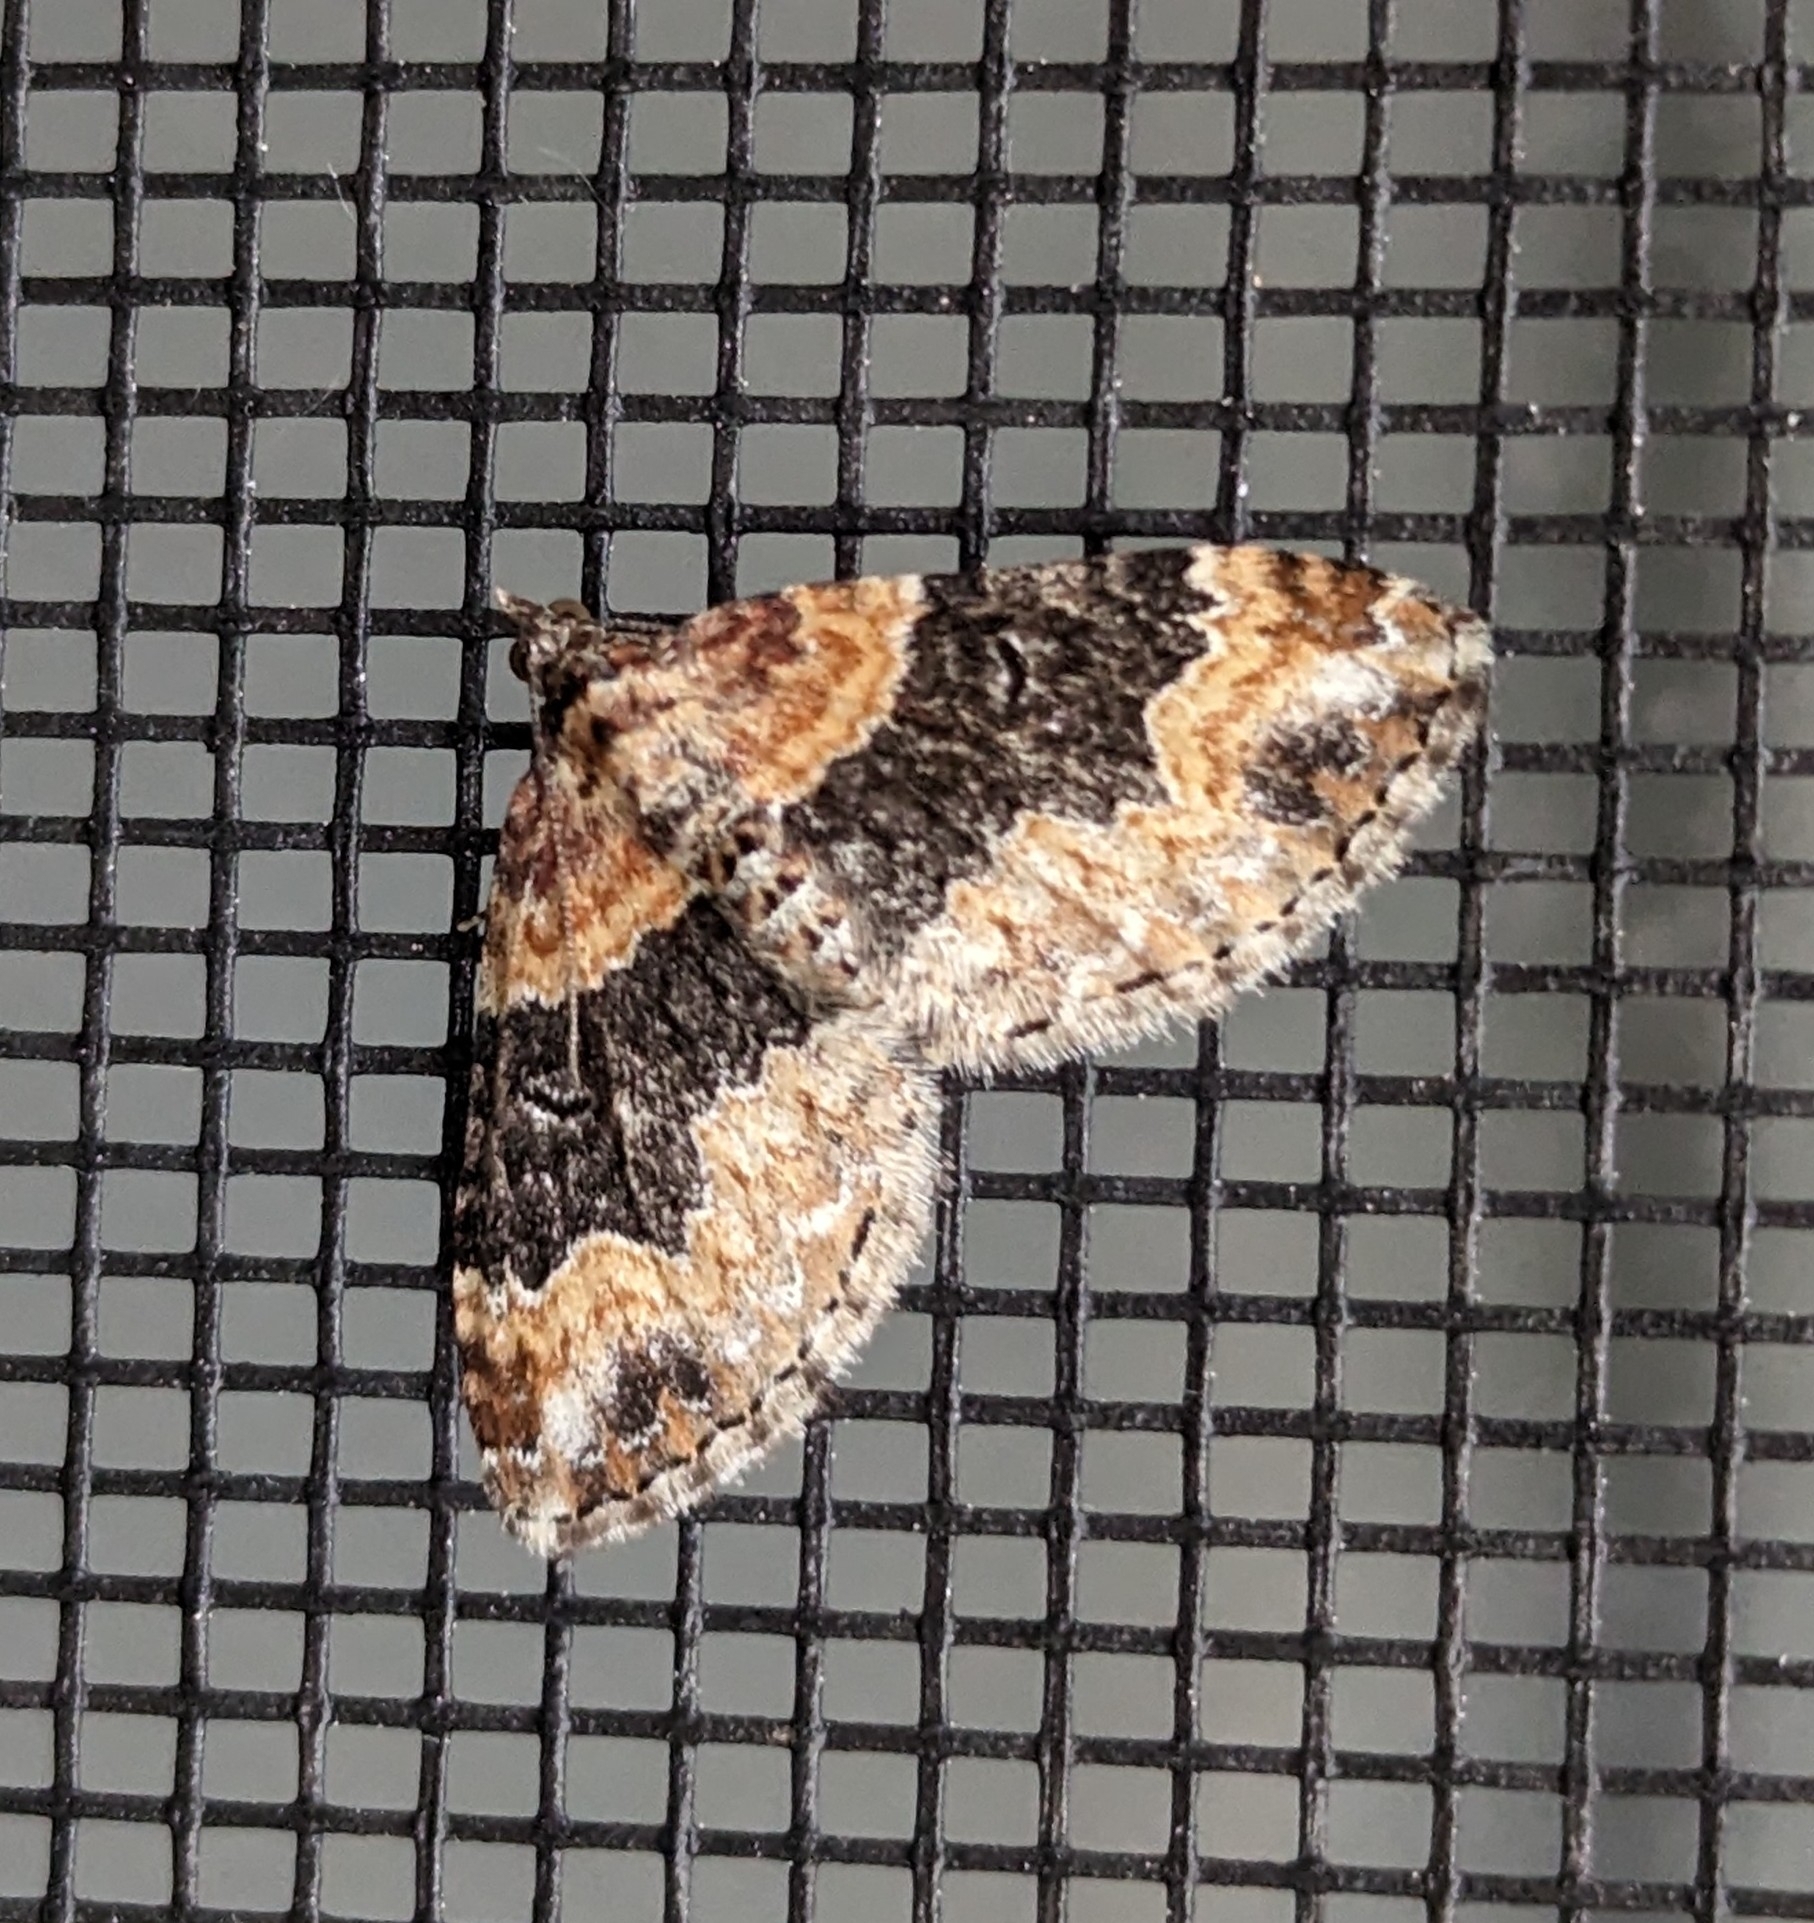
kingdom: Animalia
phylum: Arthropoda
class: Insecta
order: Lepidoptera
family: Geometridae
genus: Xanthorhoe
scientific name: Xanthorhoe ferrugata
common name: Dark-barred twin-spot carpet
